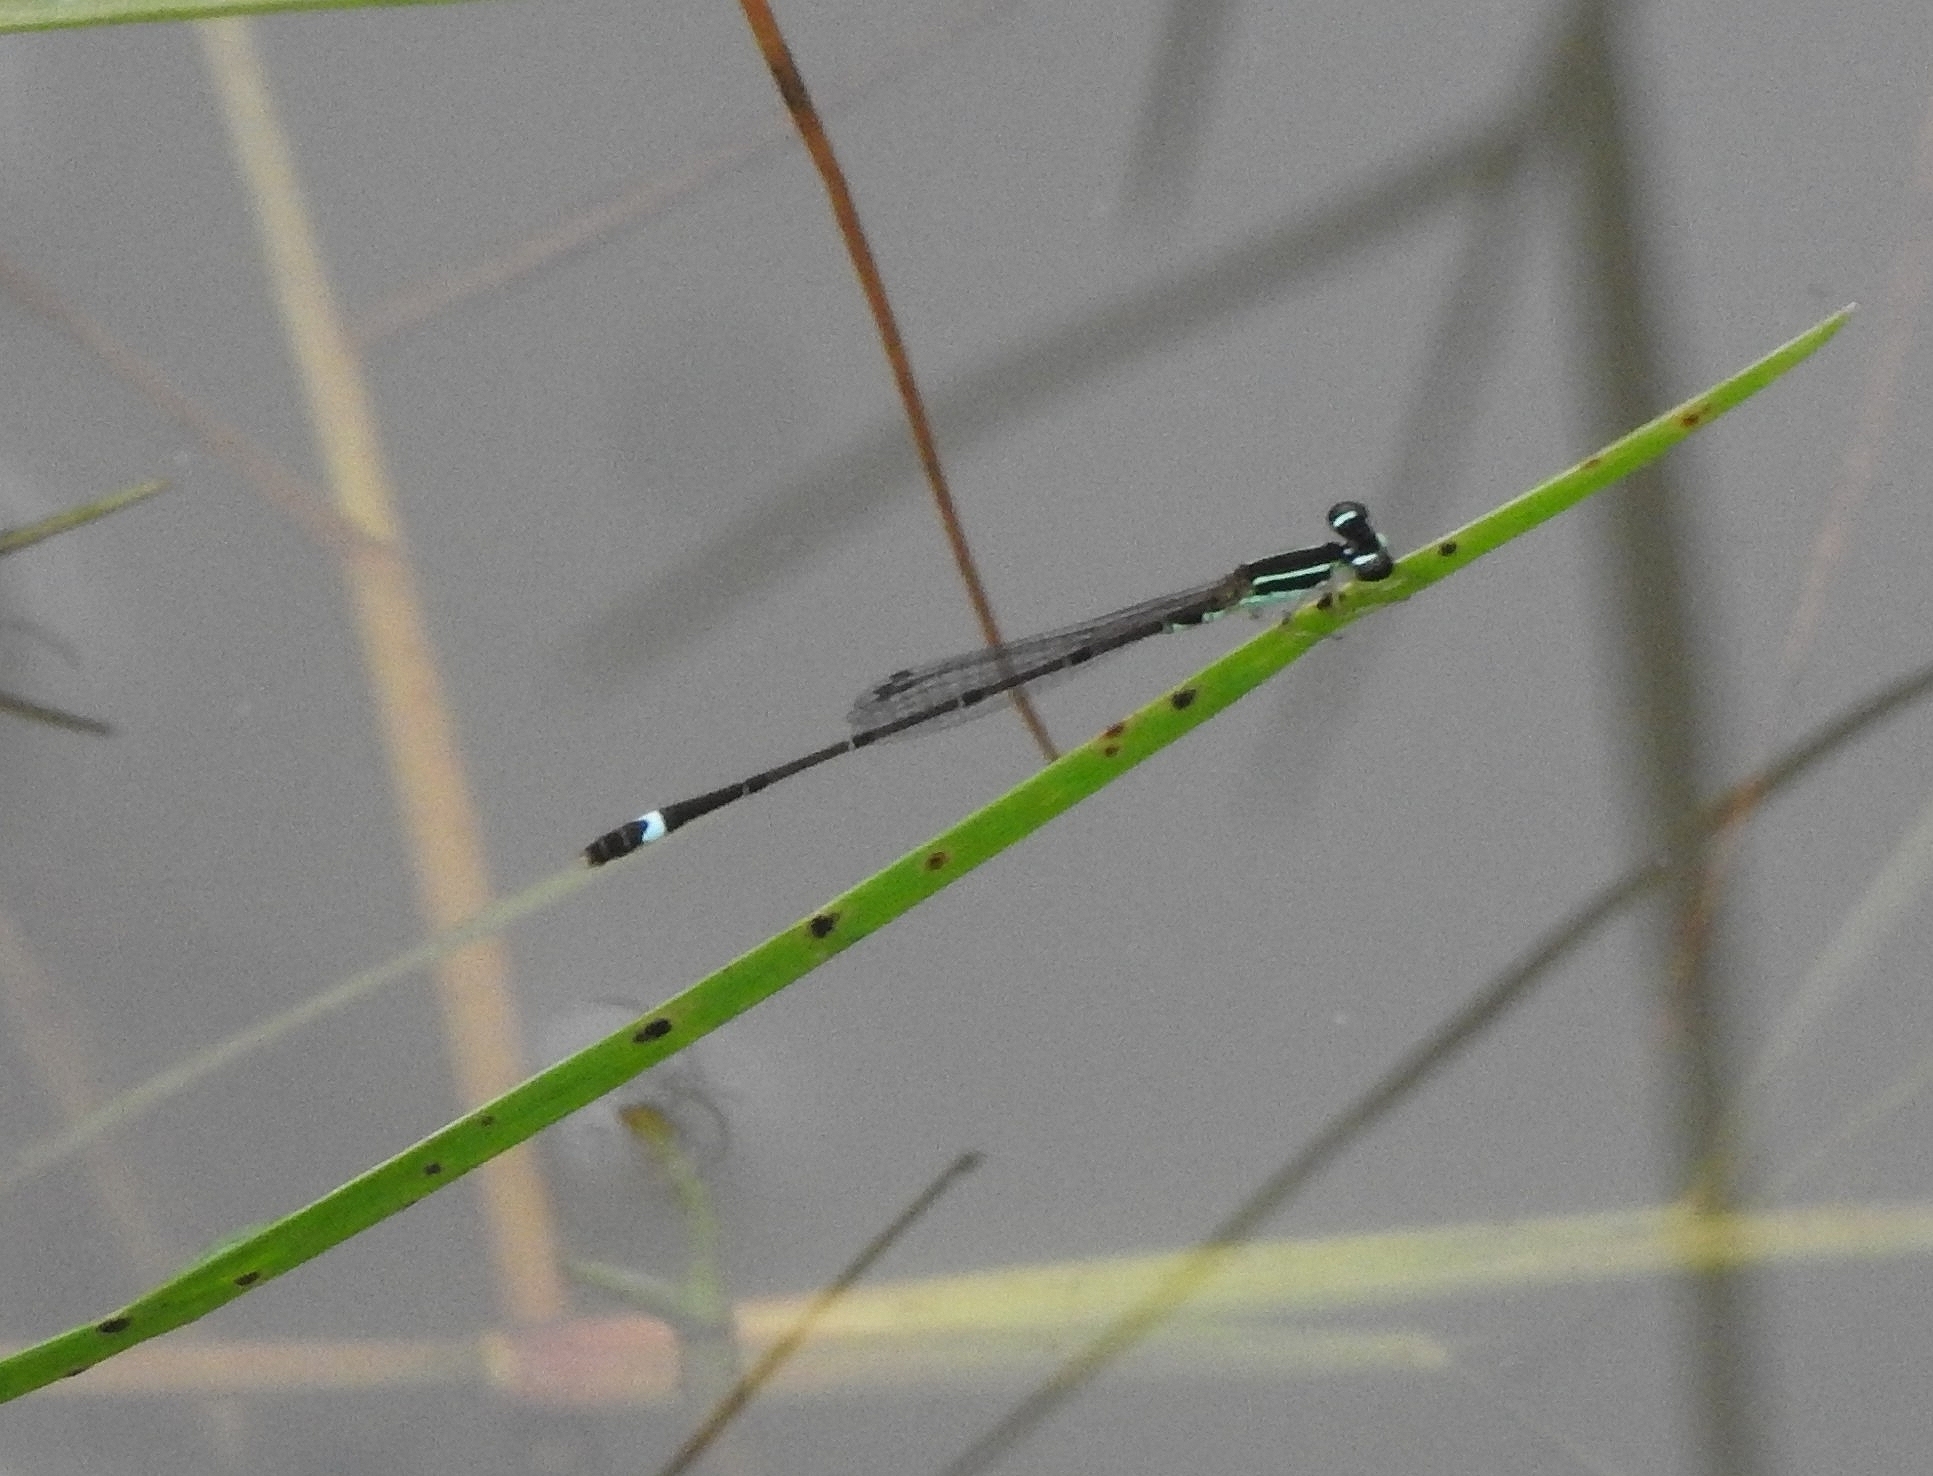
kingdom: Animalia
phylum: Arthropoda
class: Insecta
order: Odonata
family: Coenagrionidae
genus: Mortonagrion
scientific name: Mortonagrion varralli
